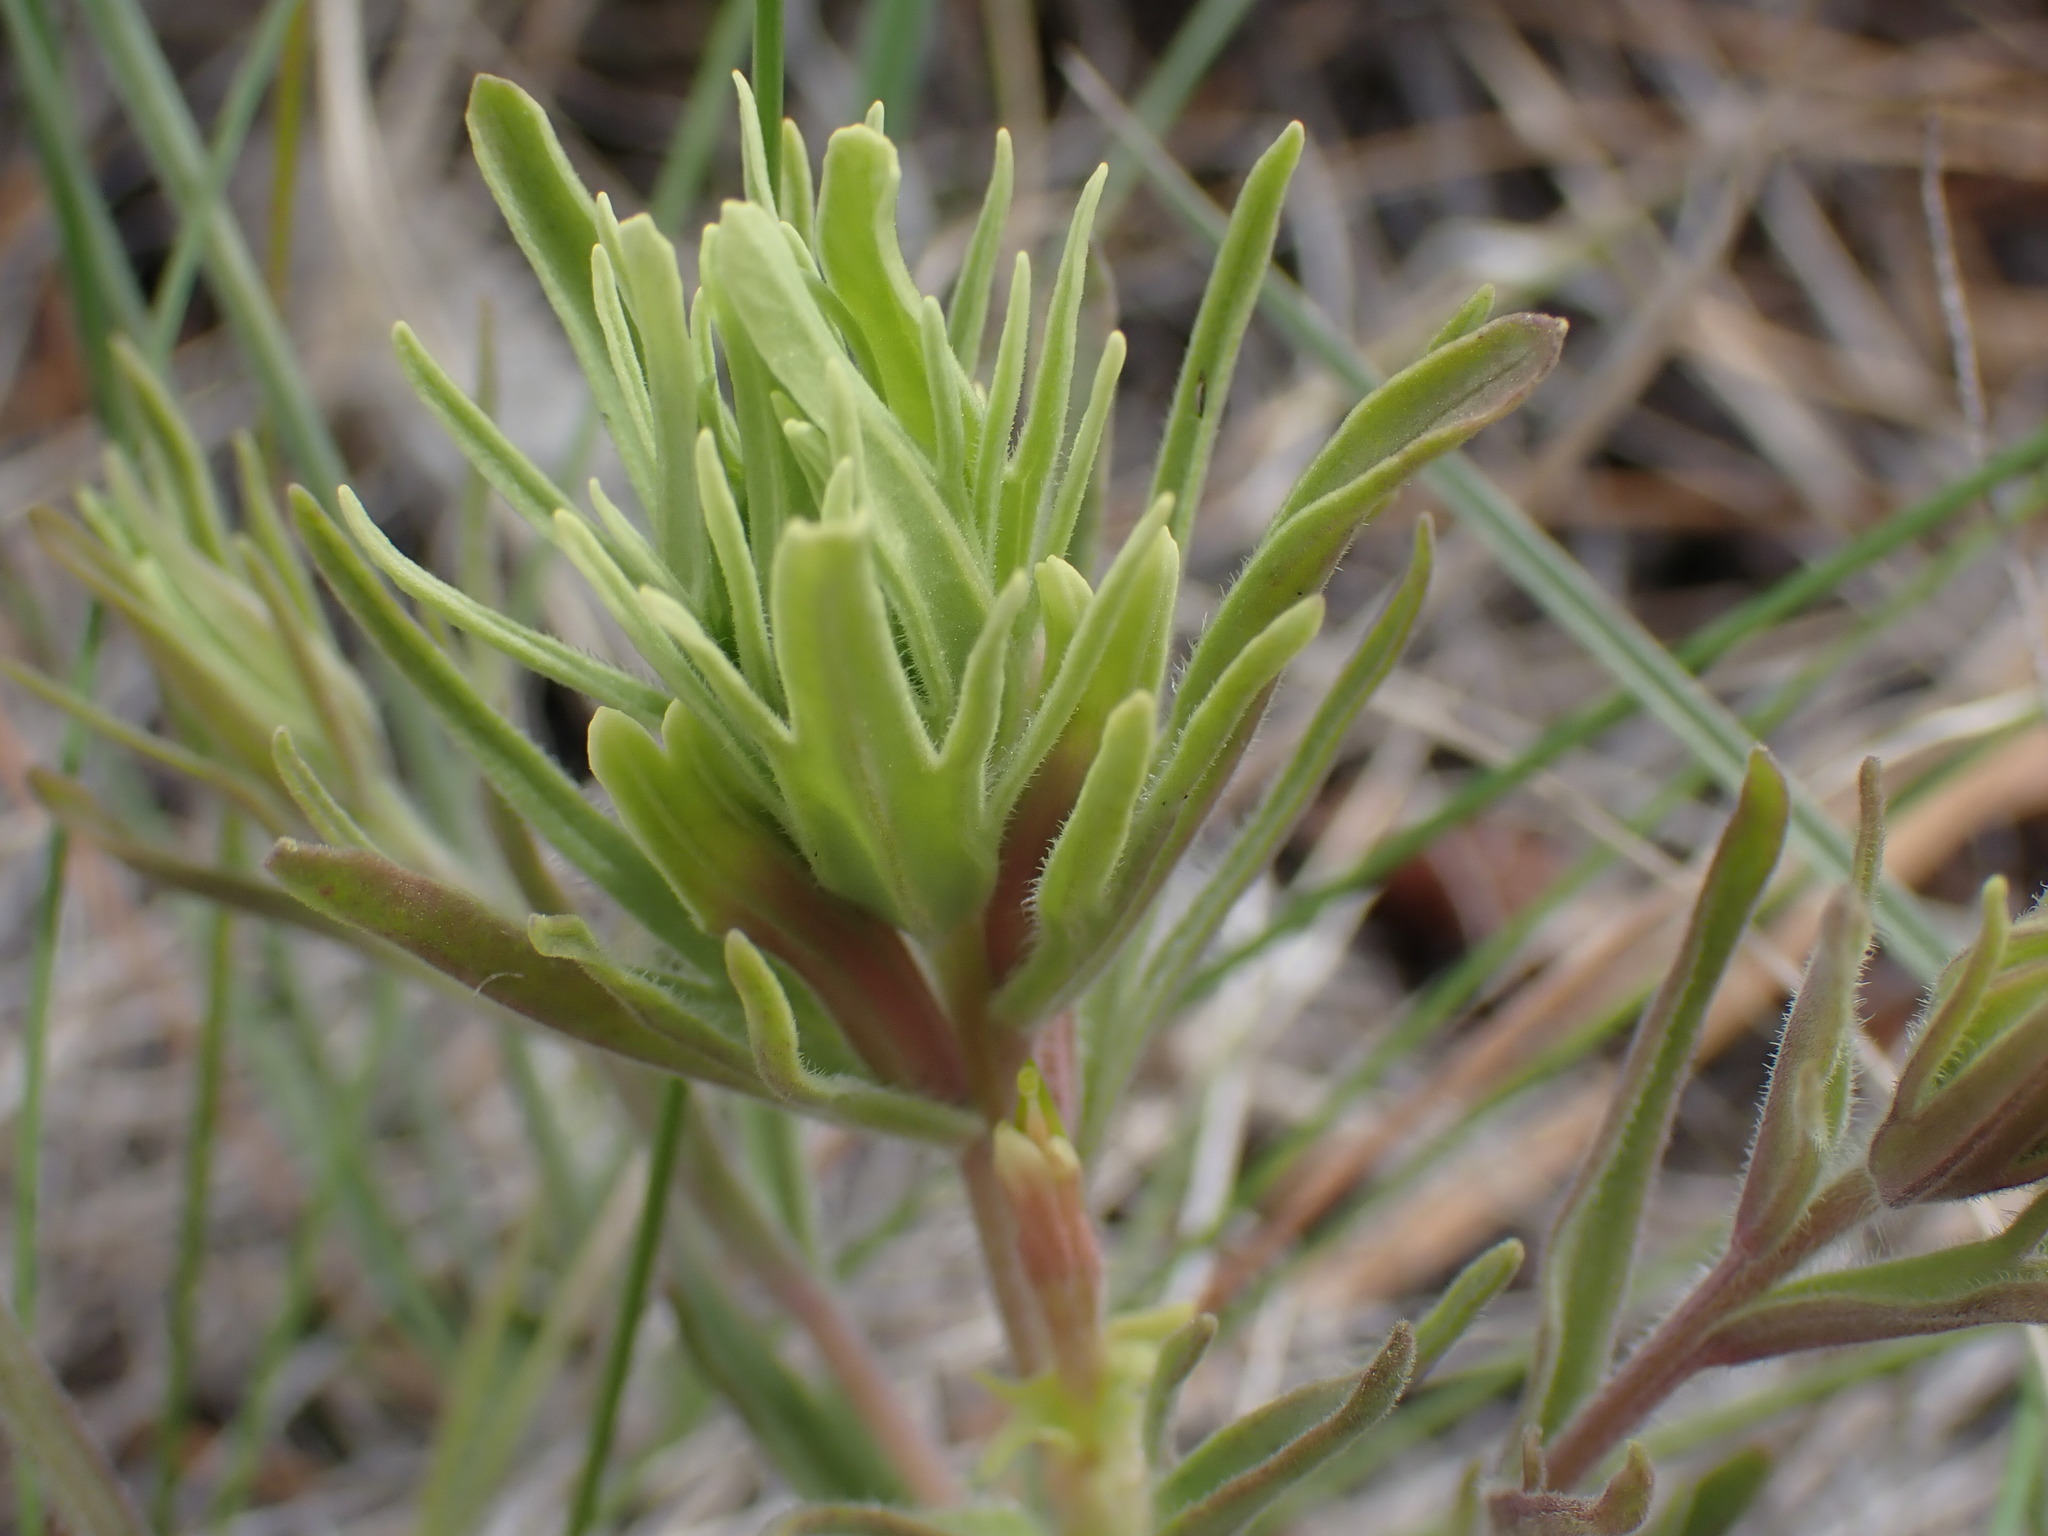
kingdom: Plantae
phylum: Tracheophyta
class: Magnoliopsida
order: Lamiales
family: Orobanchaceae
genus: Castilleja
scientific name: Castilleja thompsonii
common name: Thompson's paintbrush
